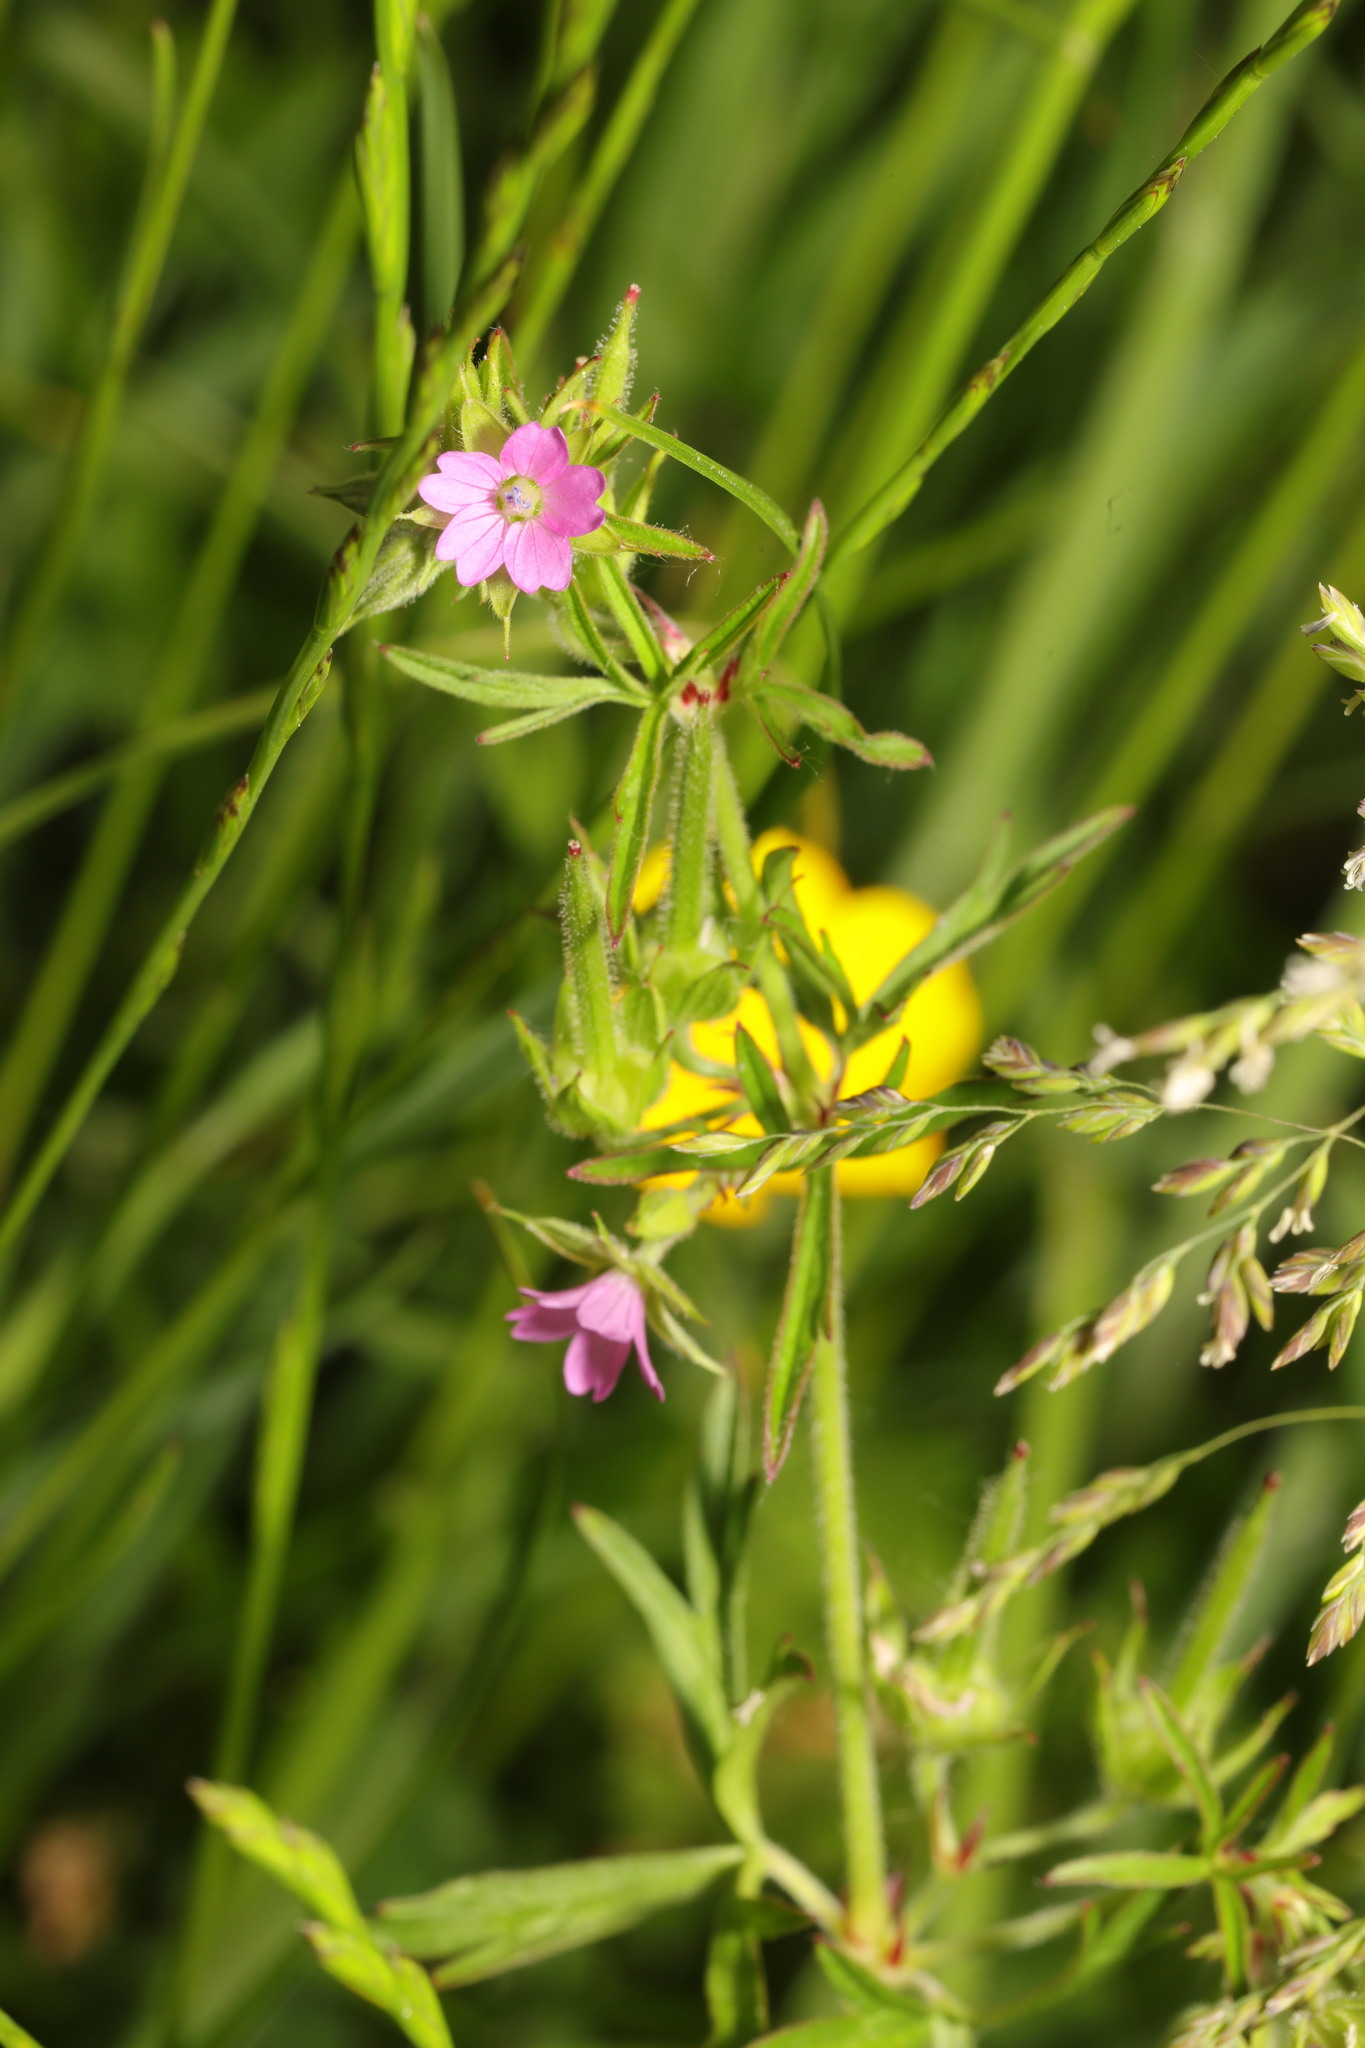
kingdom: Plantae
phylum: Tracheophyta
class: Magnoliopsida
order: Geraniales
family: Geraniaceae
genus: Geranium
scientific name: Geranium dissectum
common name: Cut-leaved crane's-bill
